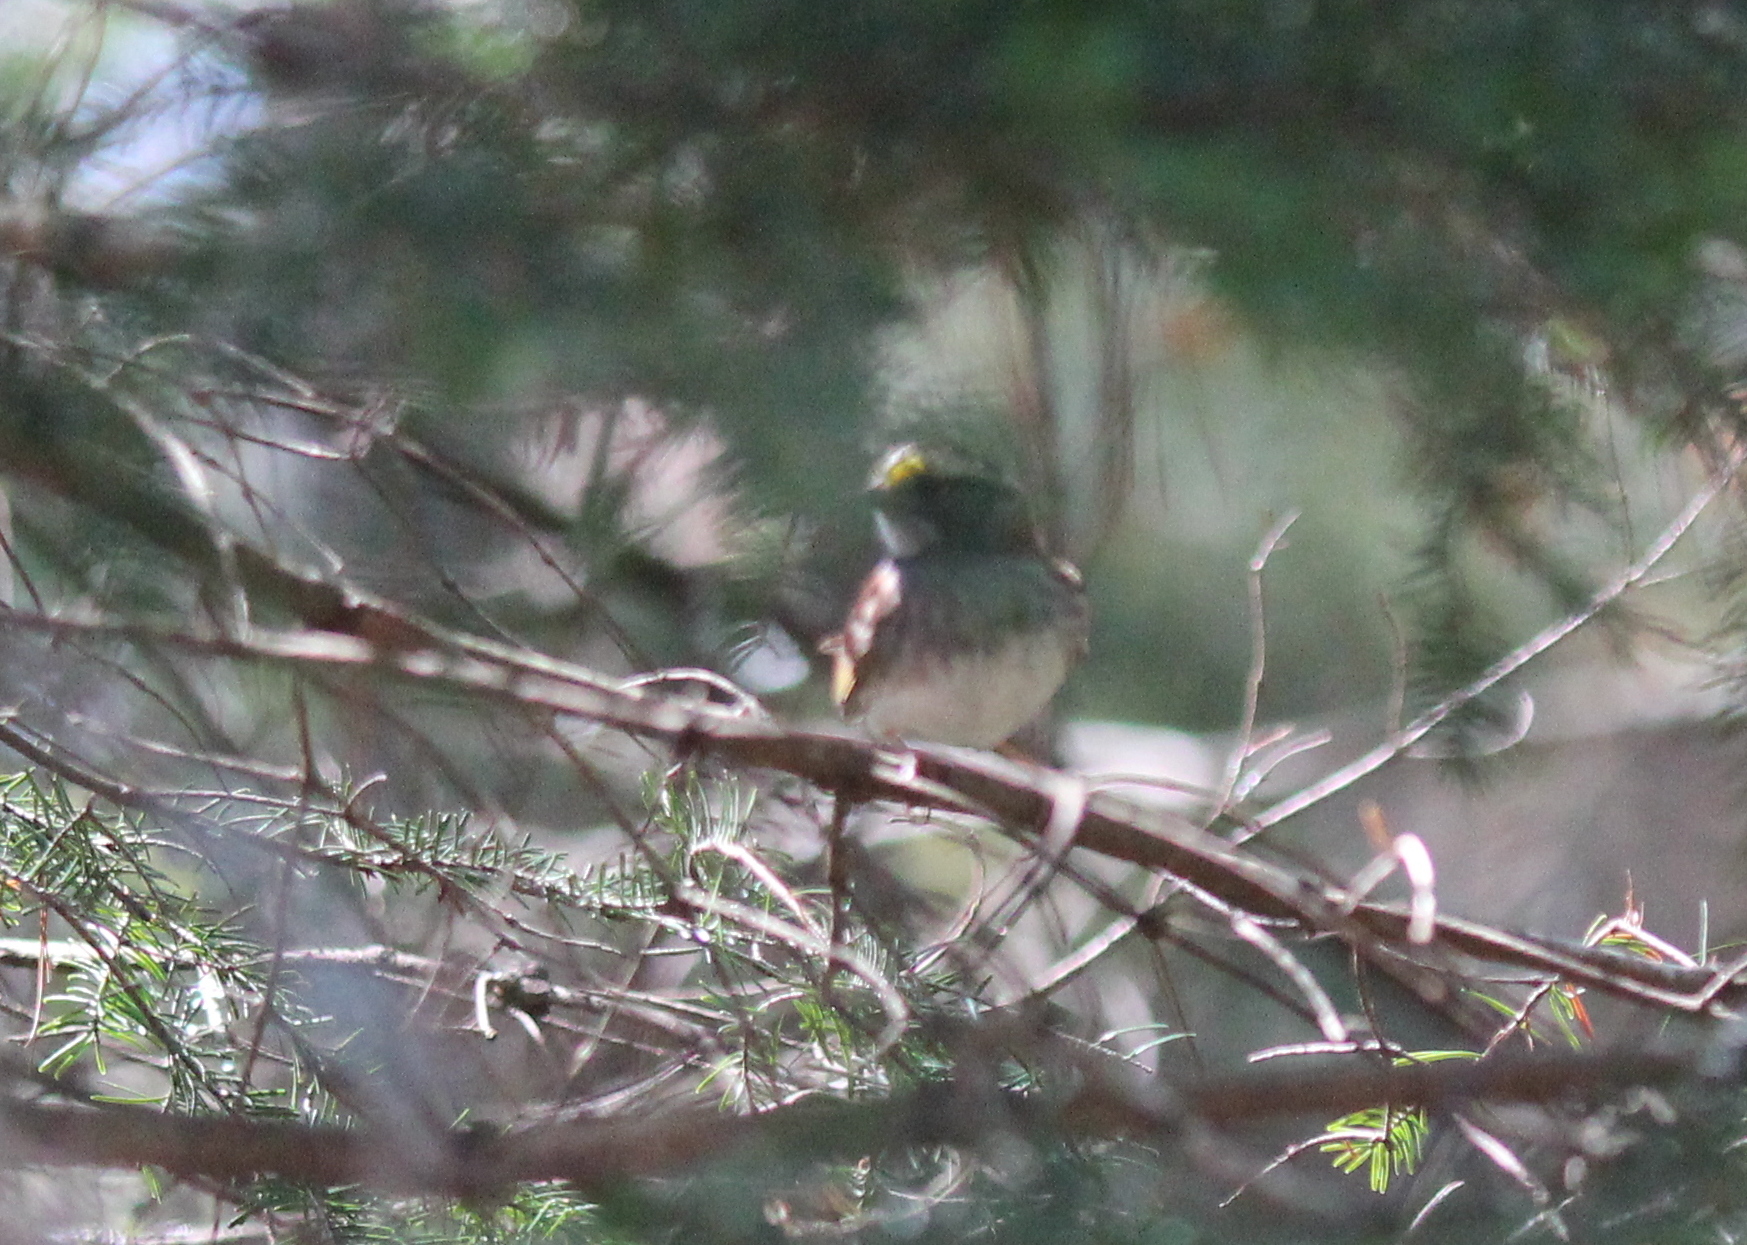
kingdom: Animalia
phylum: Chordata
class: Aves
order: Passeriformes
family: Passerellidae
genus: Zonotrichia
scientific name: Zonotrichia albicollis
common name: White-throated sparrow
